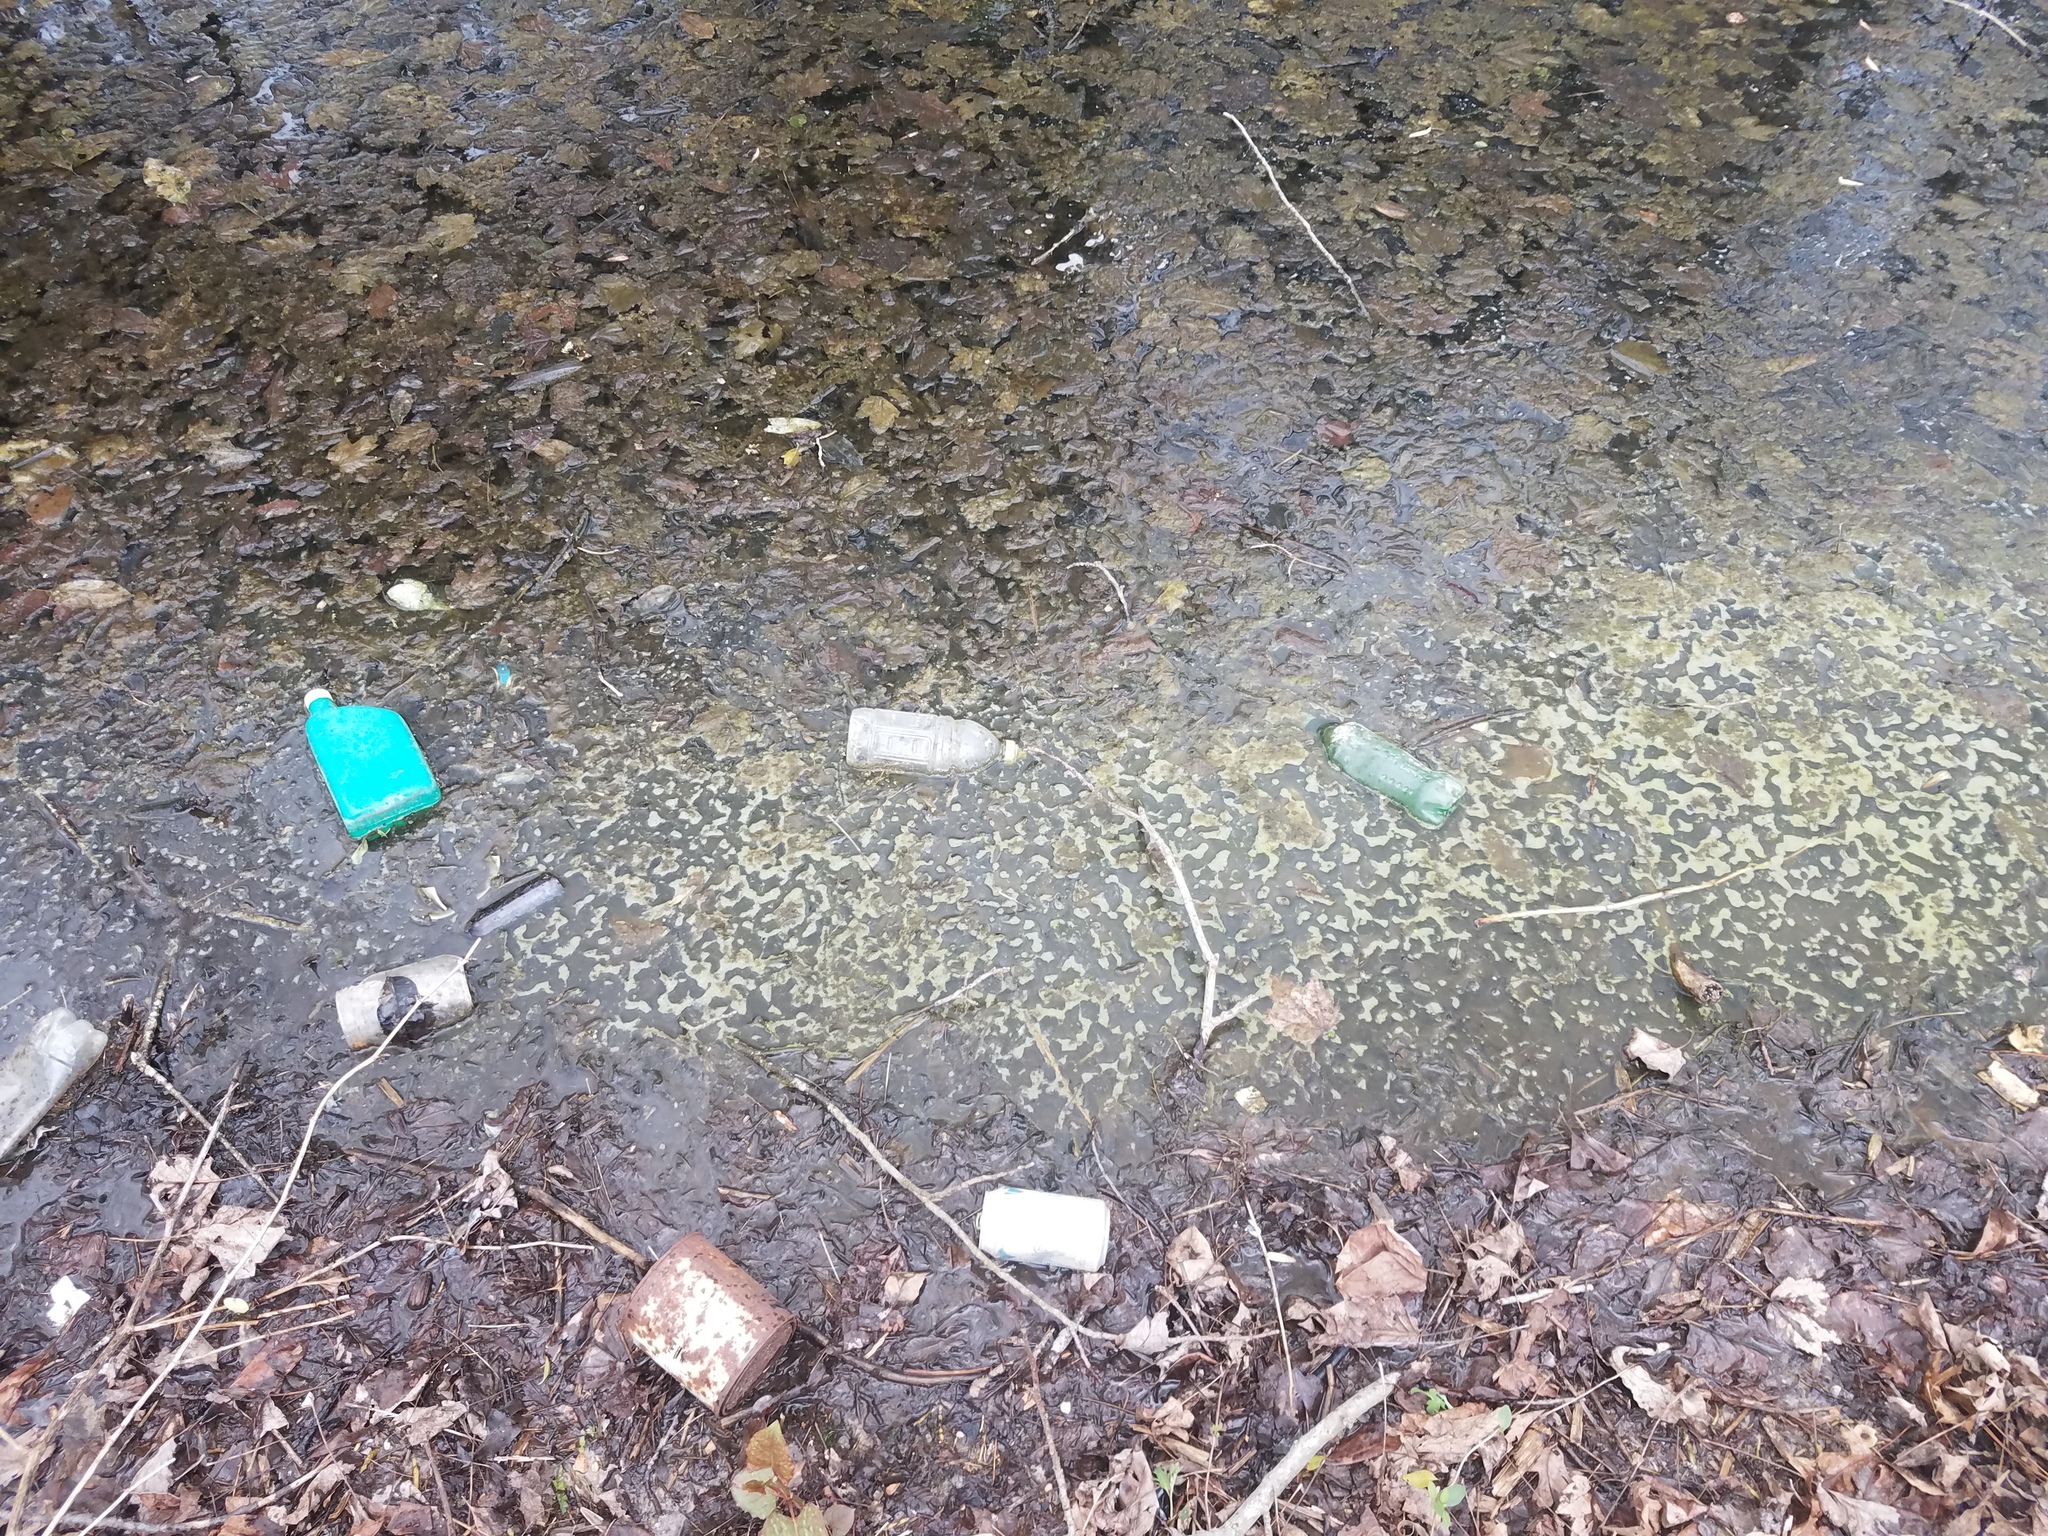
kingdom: Chromista
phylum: Ochrophyta
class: Bacillariophyceae
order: Melosirales
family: Melosiraceae
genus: Melosira
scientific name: Melosira varians
